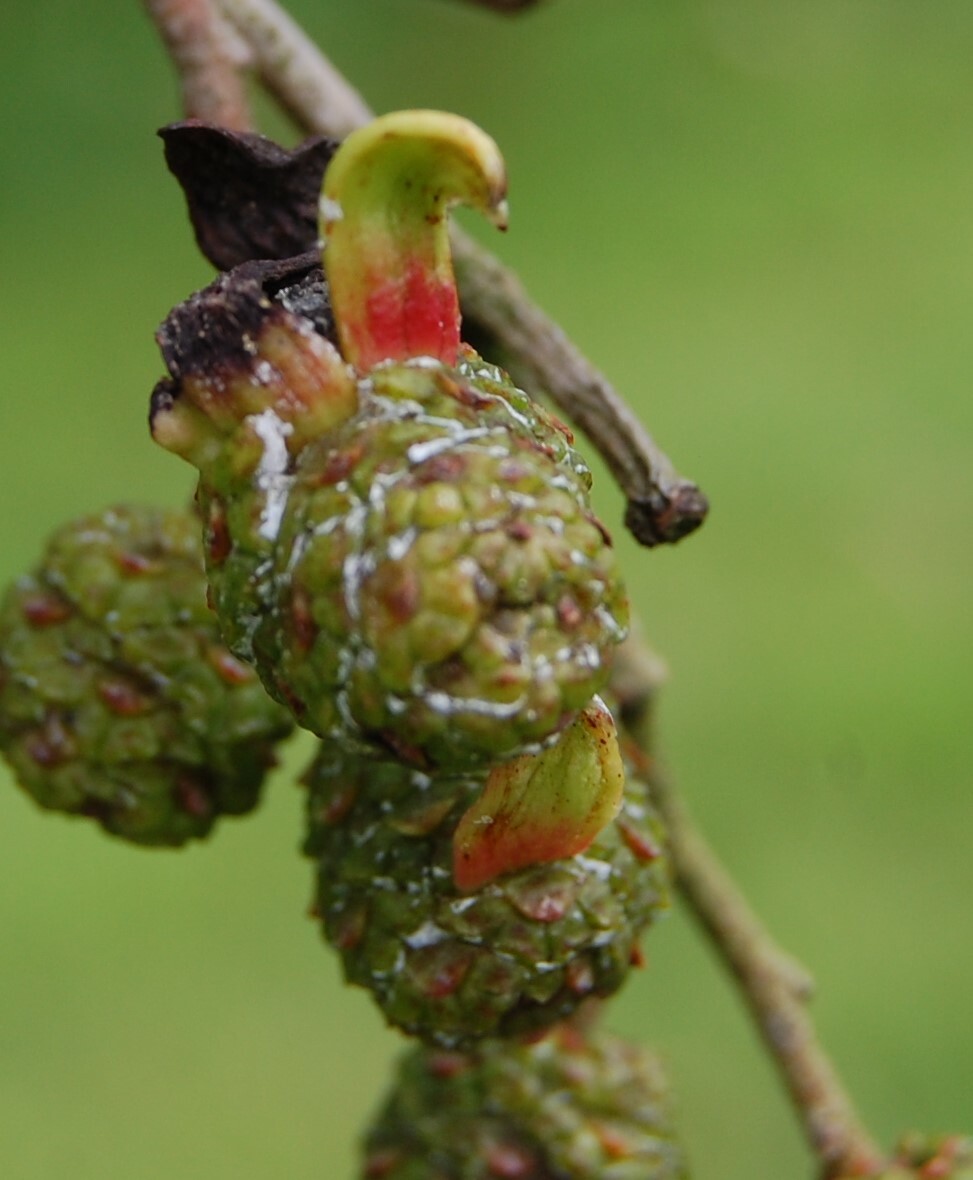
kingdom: Fungi
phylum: Ascomycota
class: Taphrinomycetes
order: Taphrinales
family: Taphrinaceae
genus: Taphrina
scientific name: Taphrina alni
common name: Alder tongue
